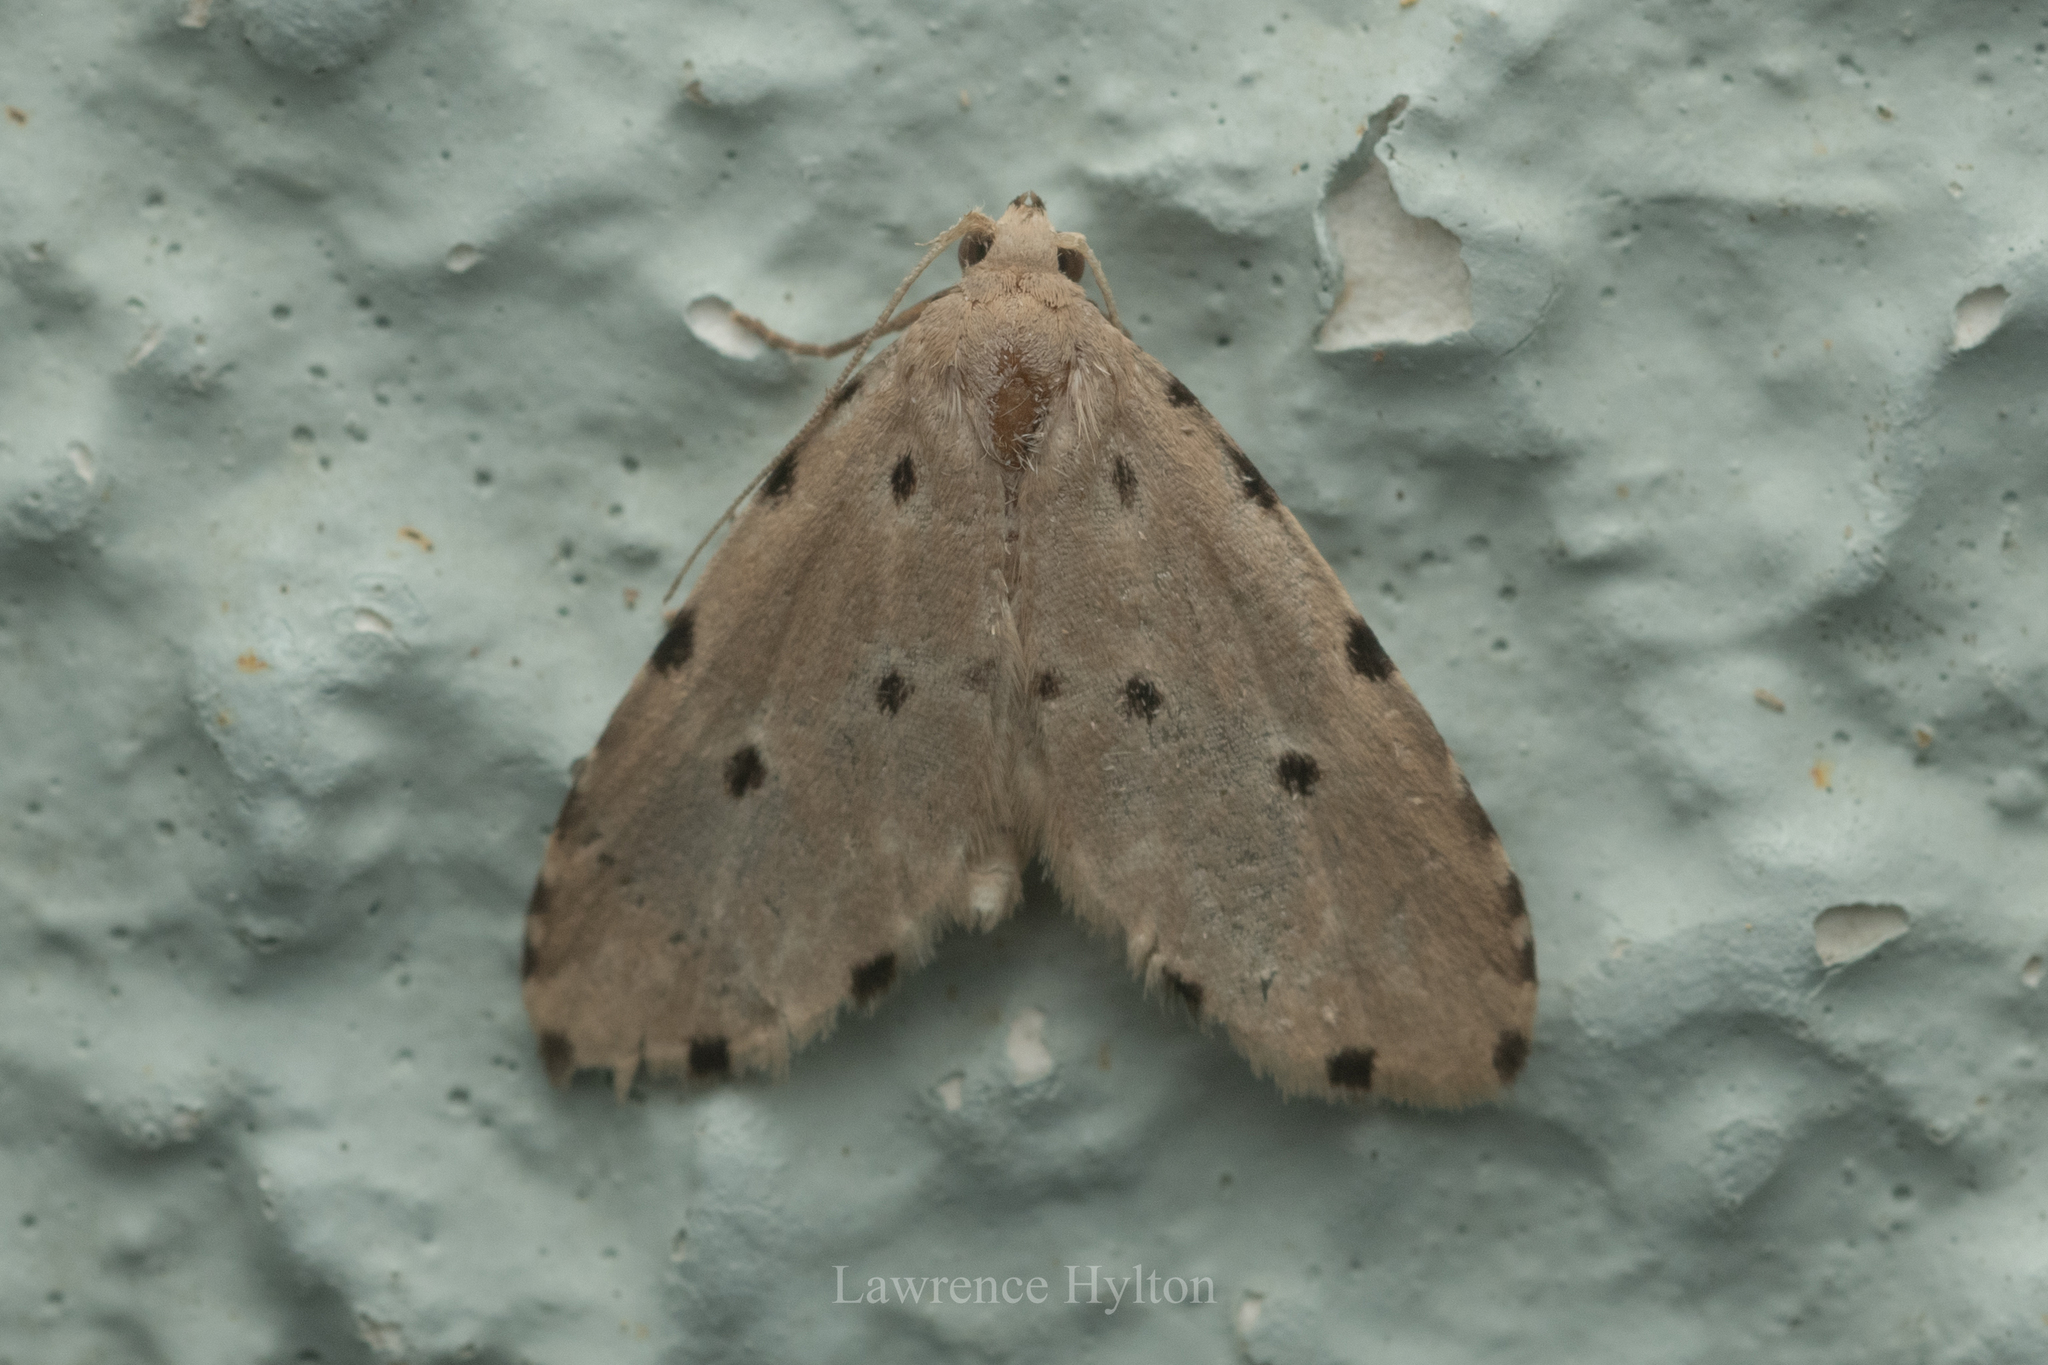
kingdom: Animalia
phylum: Arthropoda
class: Insecta
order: Lepidoptera
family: Noctuidae
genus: Metaemene
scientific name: Metaemene atrigutta
